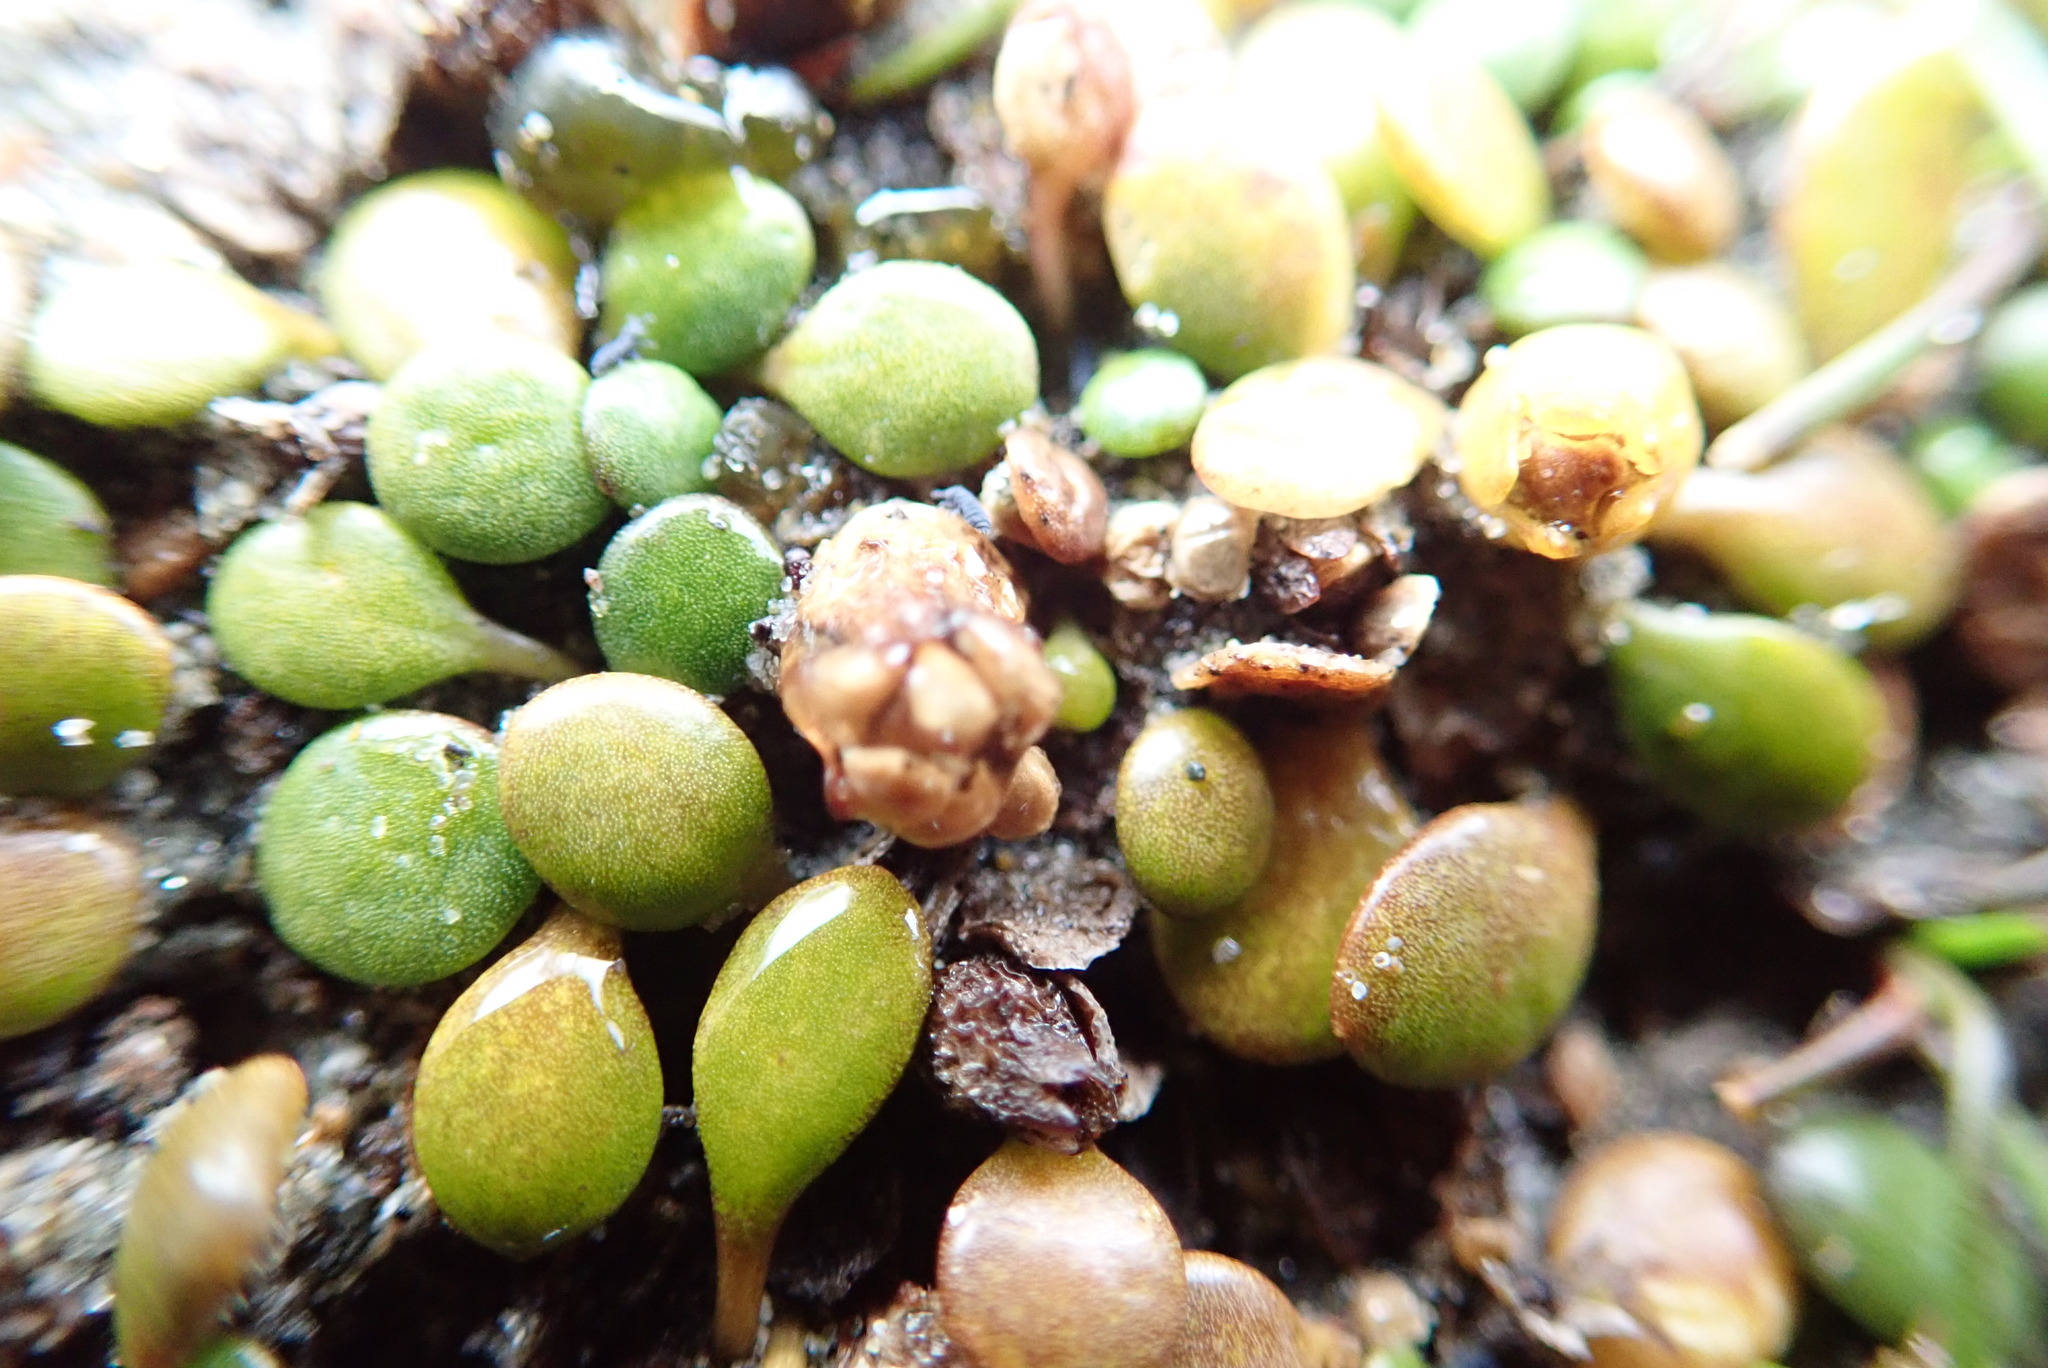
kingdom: Plantae
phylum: Tracheophyta
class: Magnoliopsida
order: Asterales
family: Goodeniaceae
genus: Goodenia
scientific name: Goodenia heenanii
